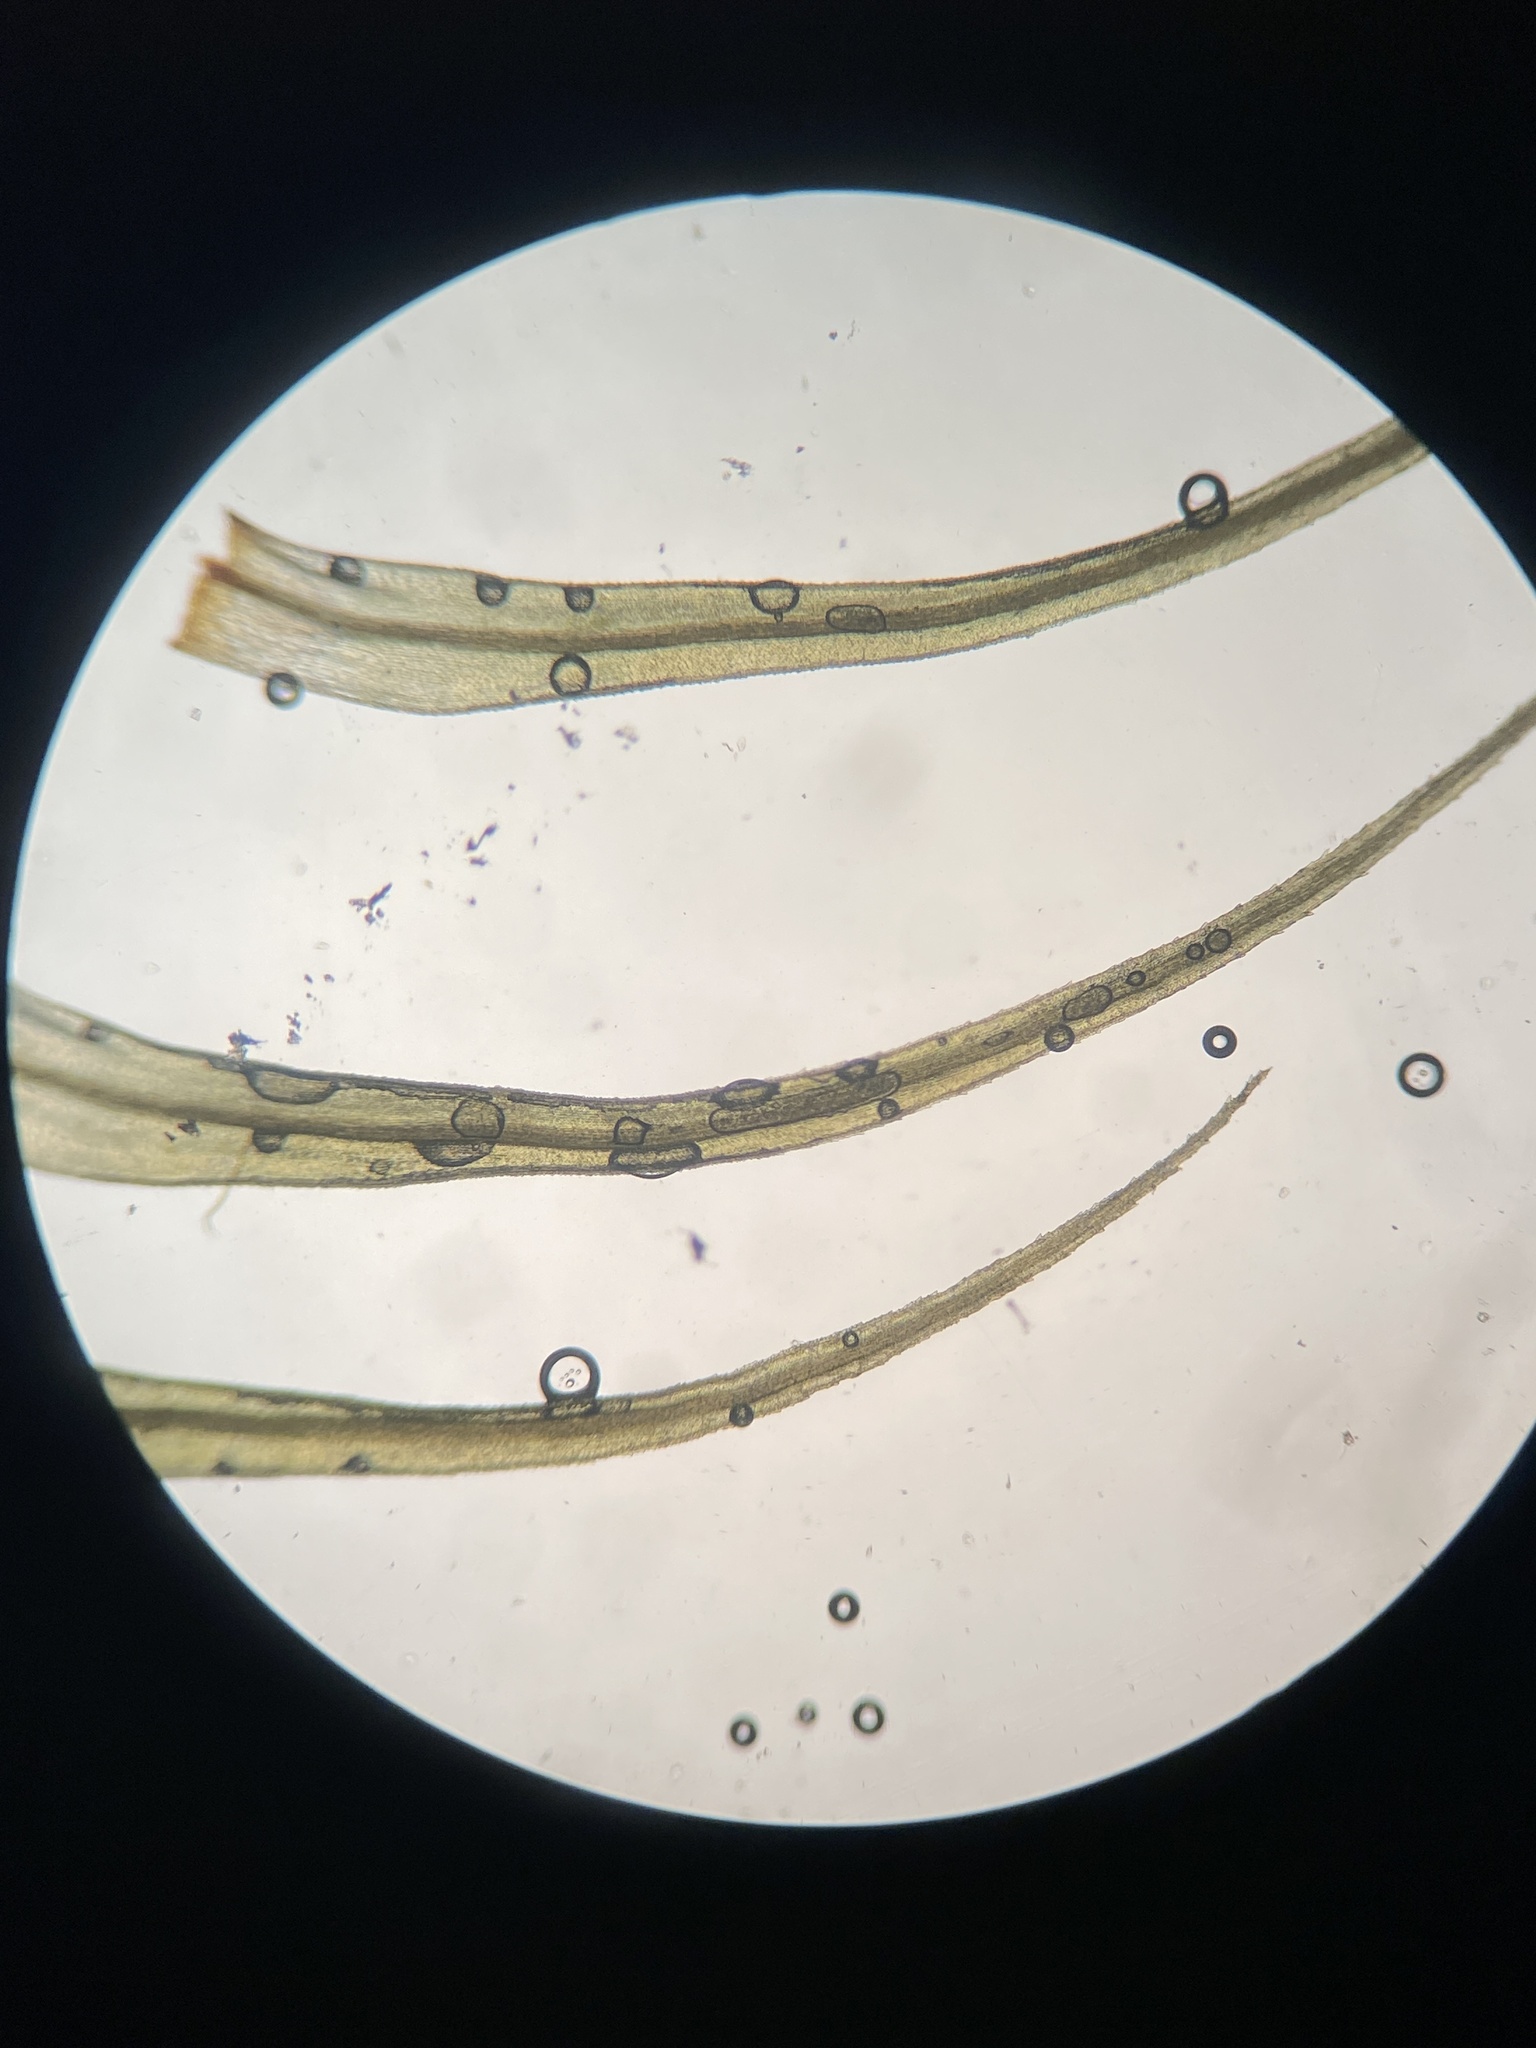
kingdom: Plantae
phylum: Bryophyta
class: Bryopsida
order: Bartramiales
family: Bartramiaceae
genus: Bartramia
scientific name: Bartramia ithyphylla
